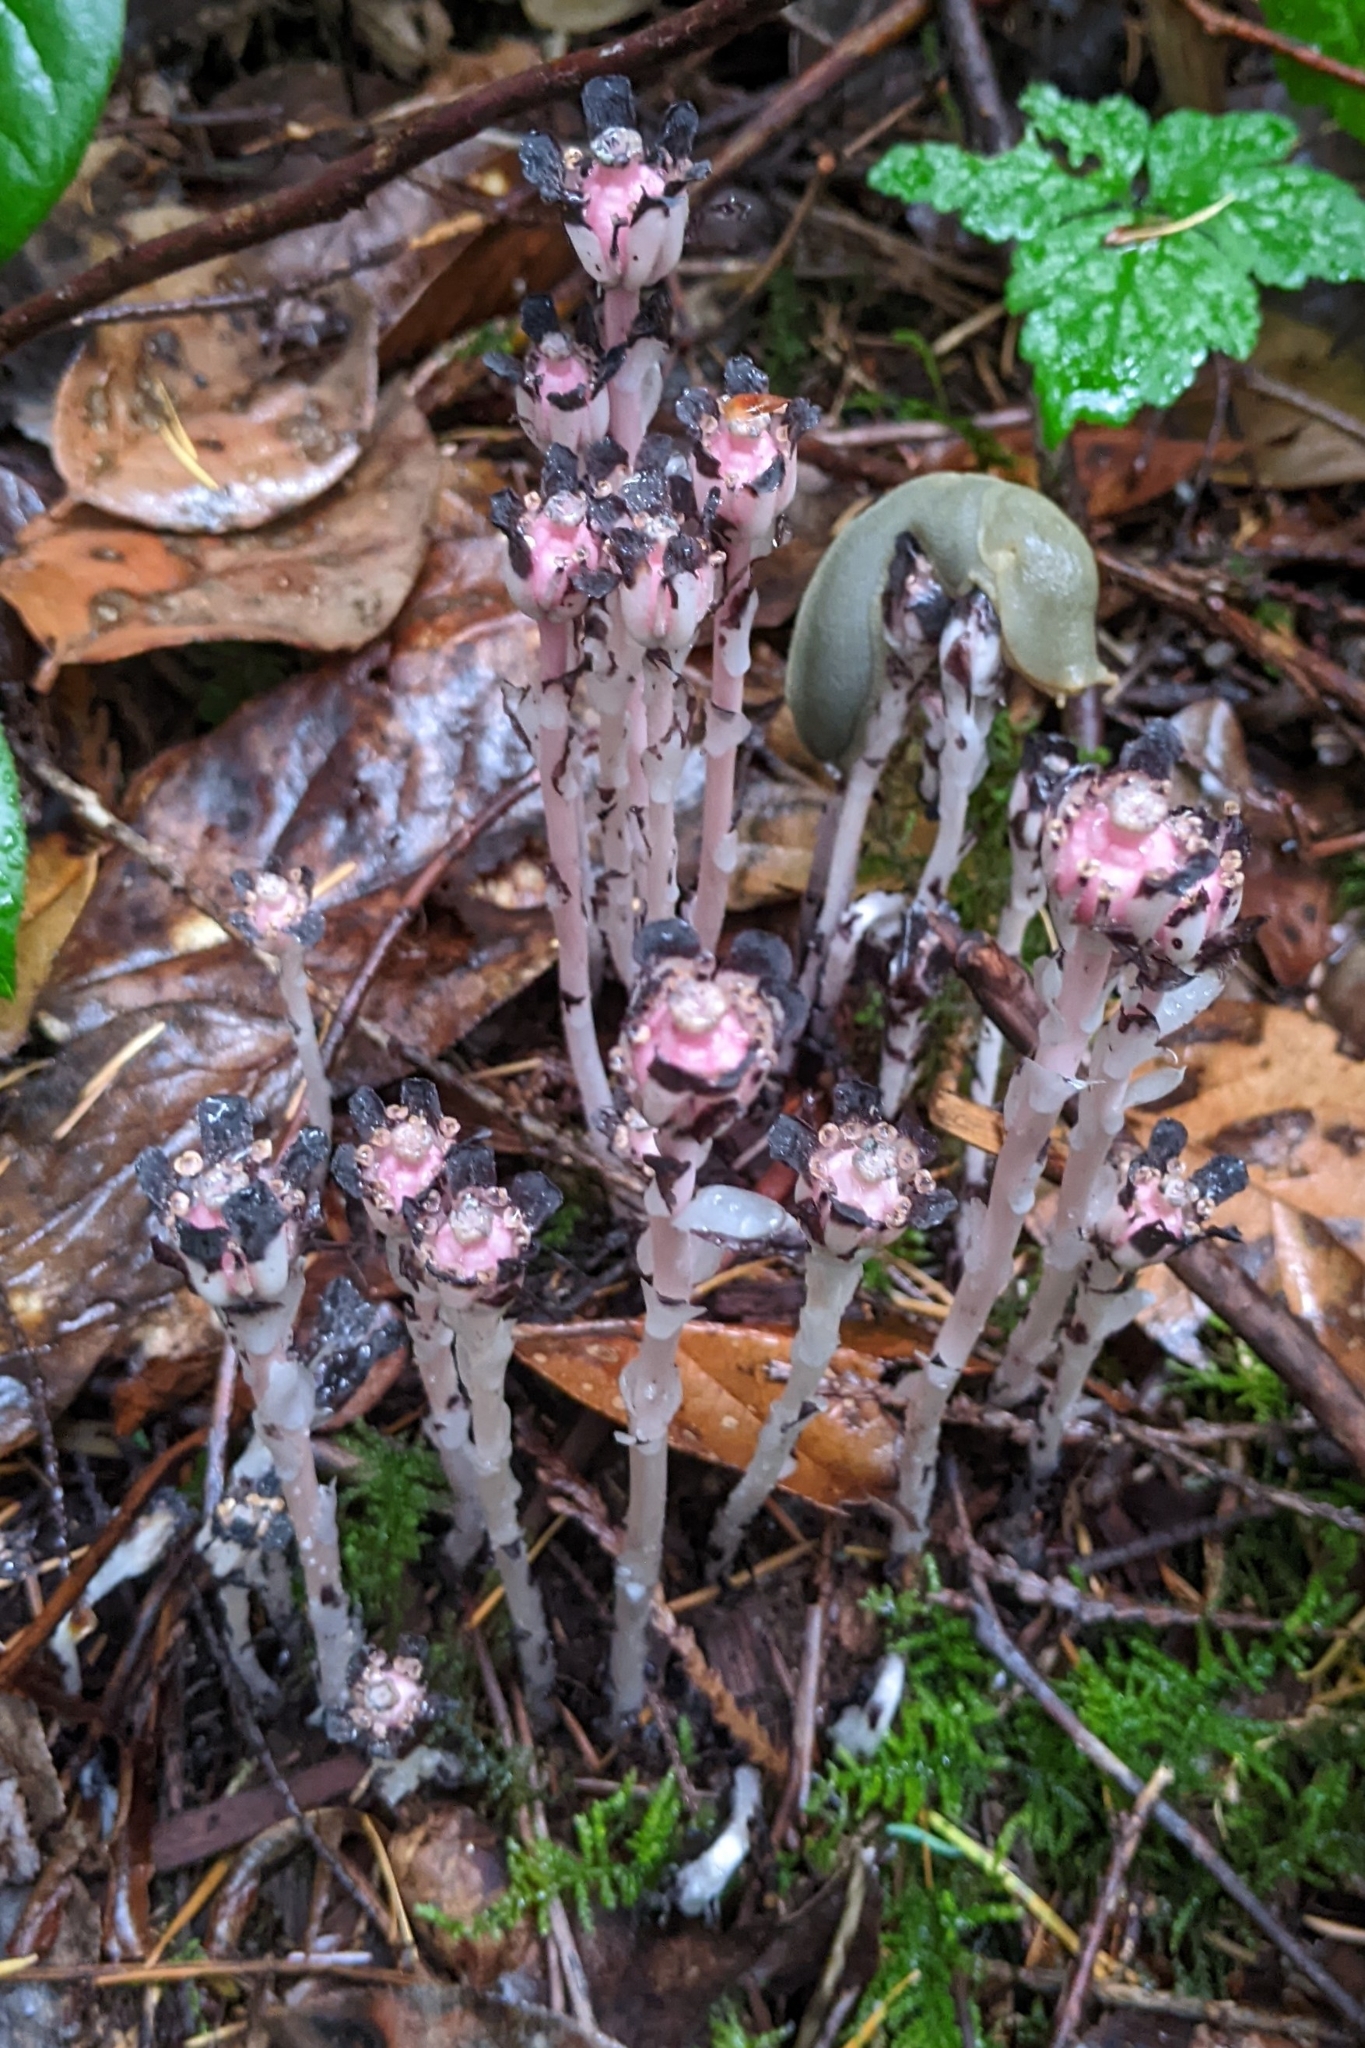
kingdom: Plantae
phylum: Tracheophyta
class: Magnoliopsida
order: Ericales
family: Ericaceae
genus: Monotropa
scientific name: Monotropa uniflora
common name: Convulsion root
